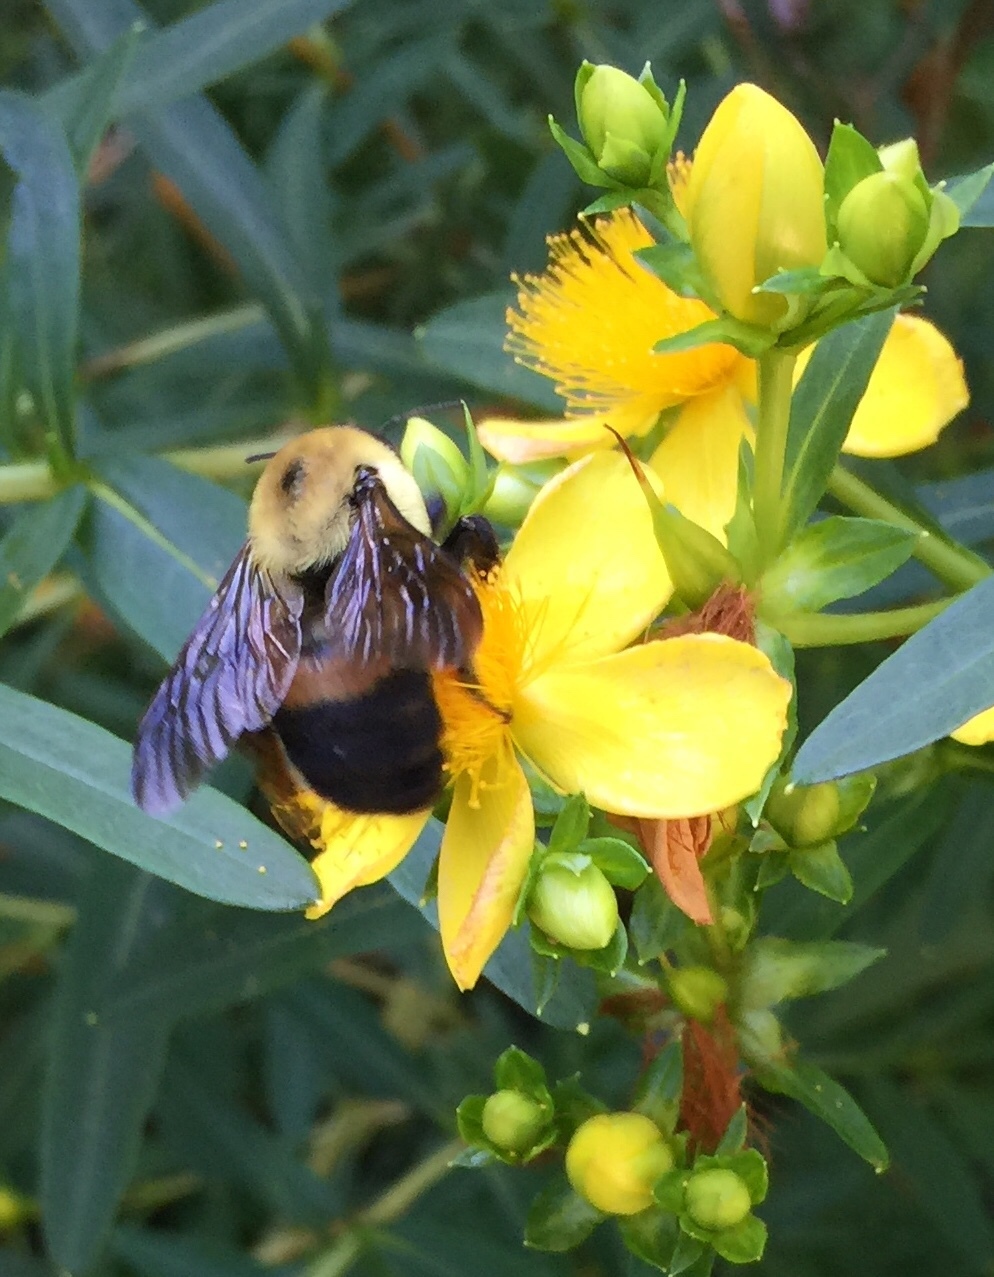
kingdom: Animalia
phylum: Arthropoda
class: Insecta
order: Hymenoptera
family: Apidae
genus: Bombus
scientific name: Bombus griseocollis
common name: Brown-belted bumble bee
